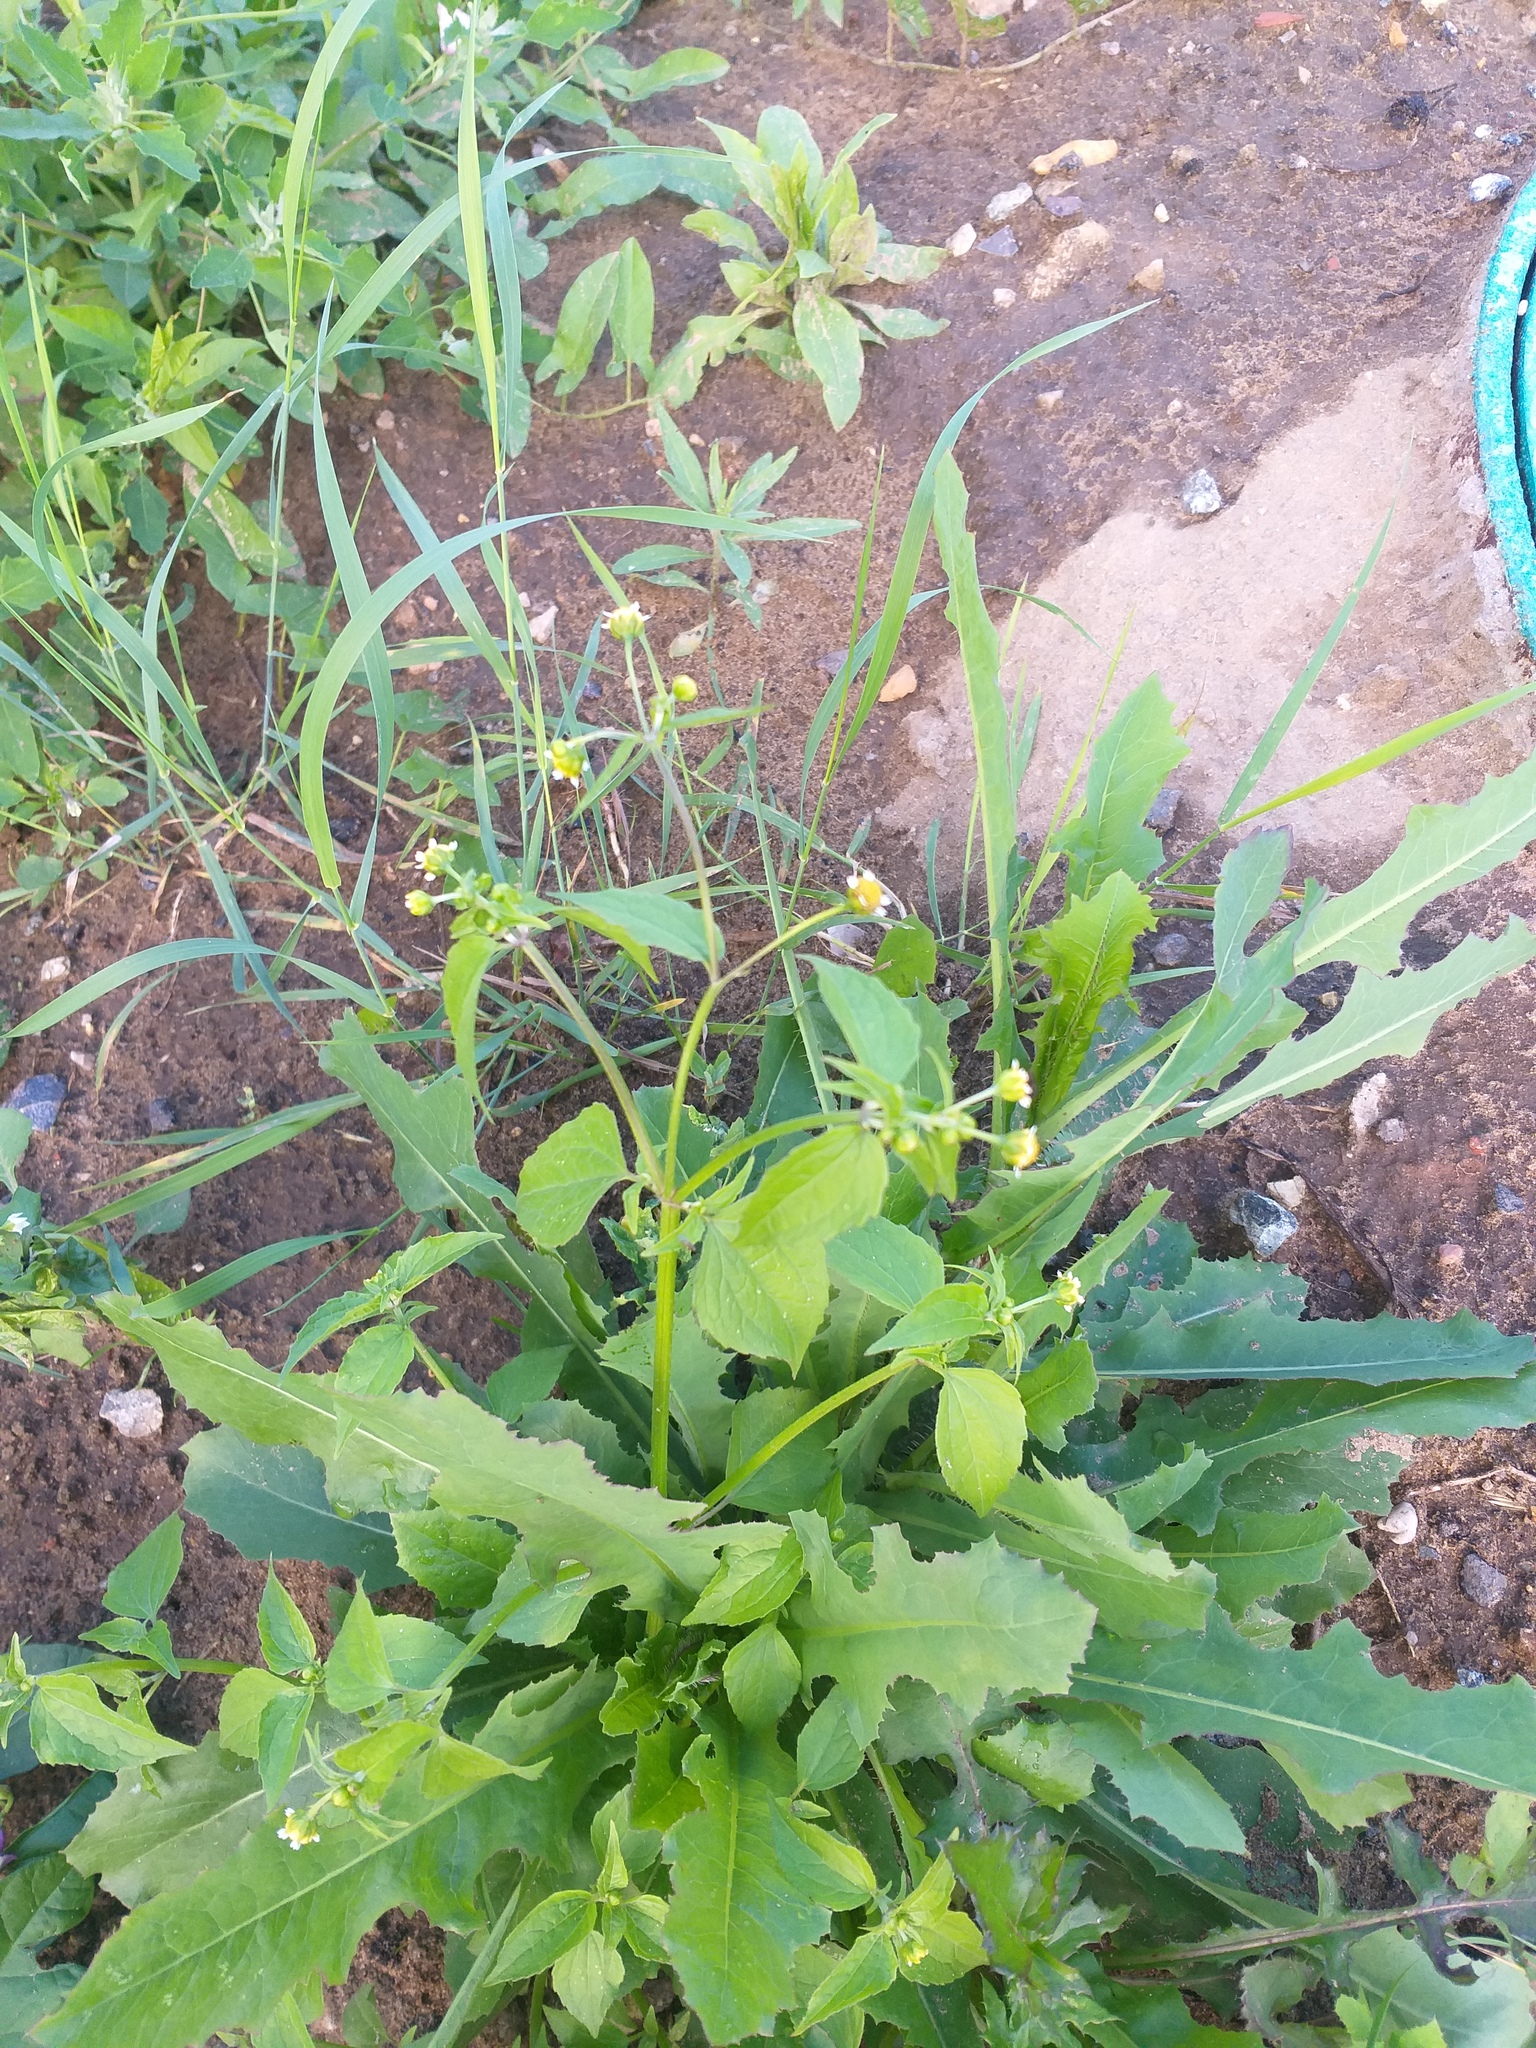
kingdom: Plantae
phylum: Tracheophyta
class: Magnoliopsida
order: Asterales
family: Asteraceae
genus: Galinsoga
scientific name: Galinsoga parviflora
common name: Gallant soldier
